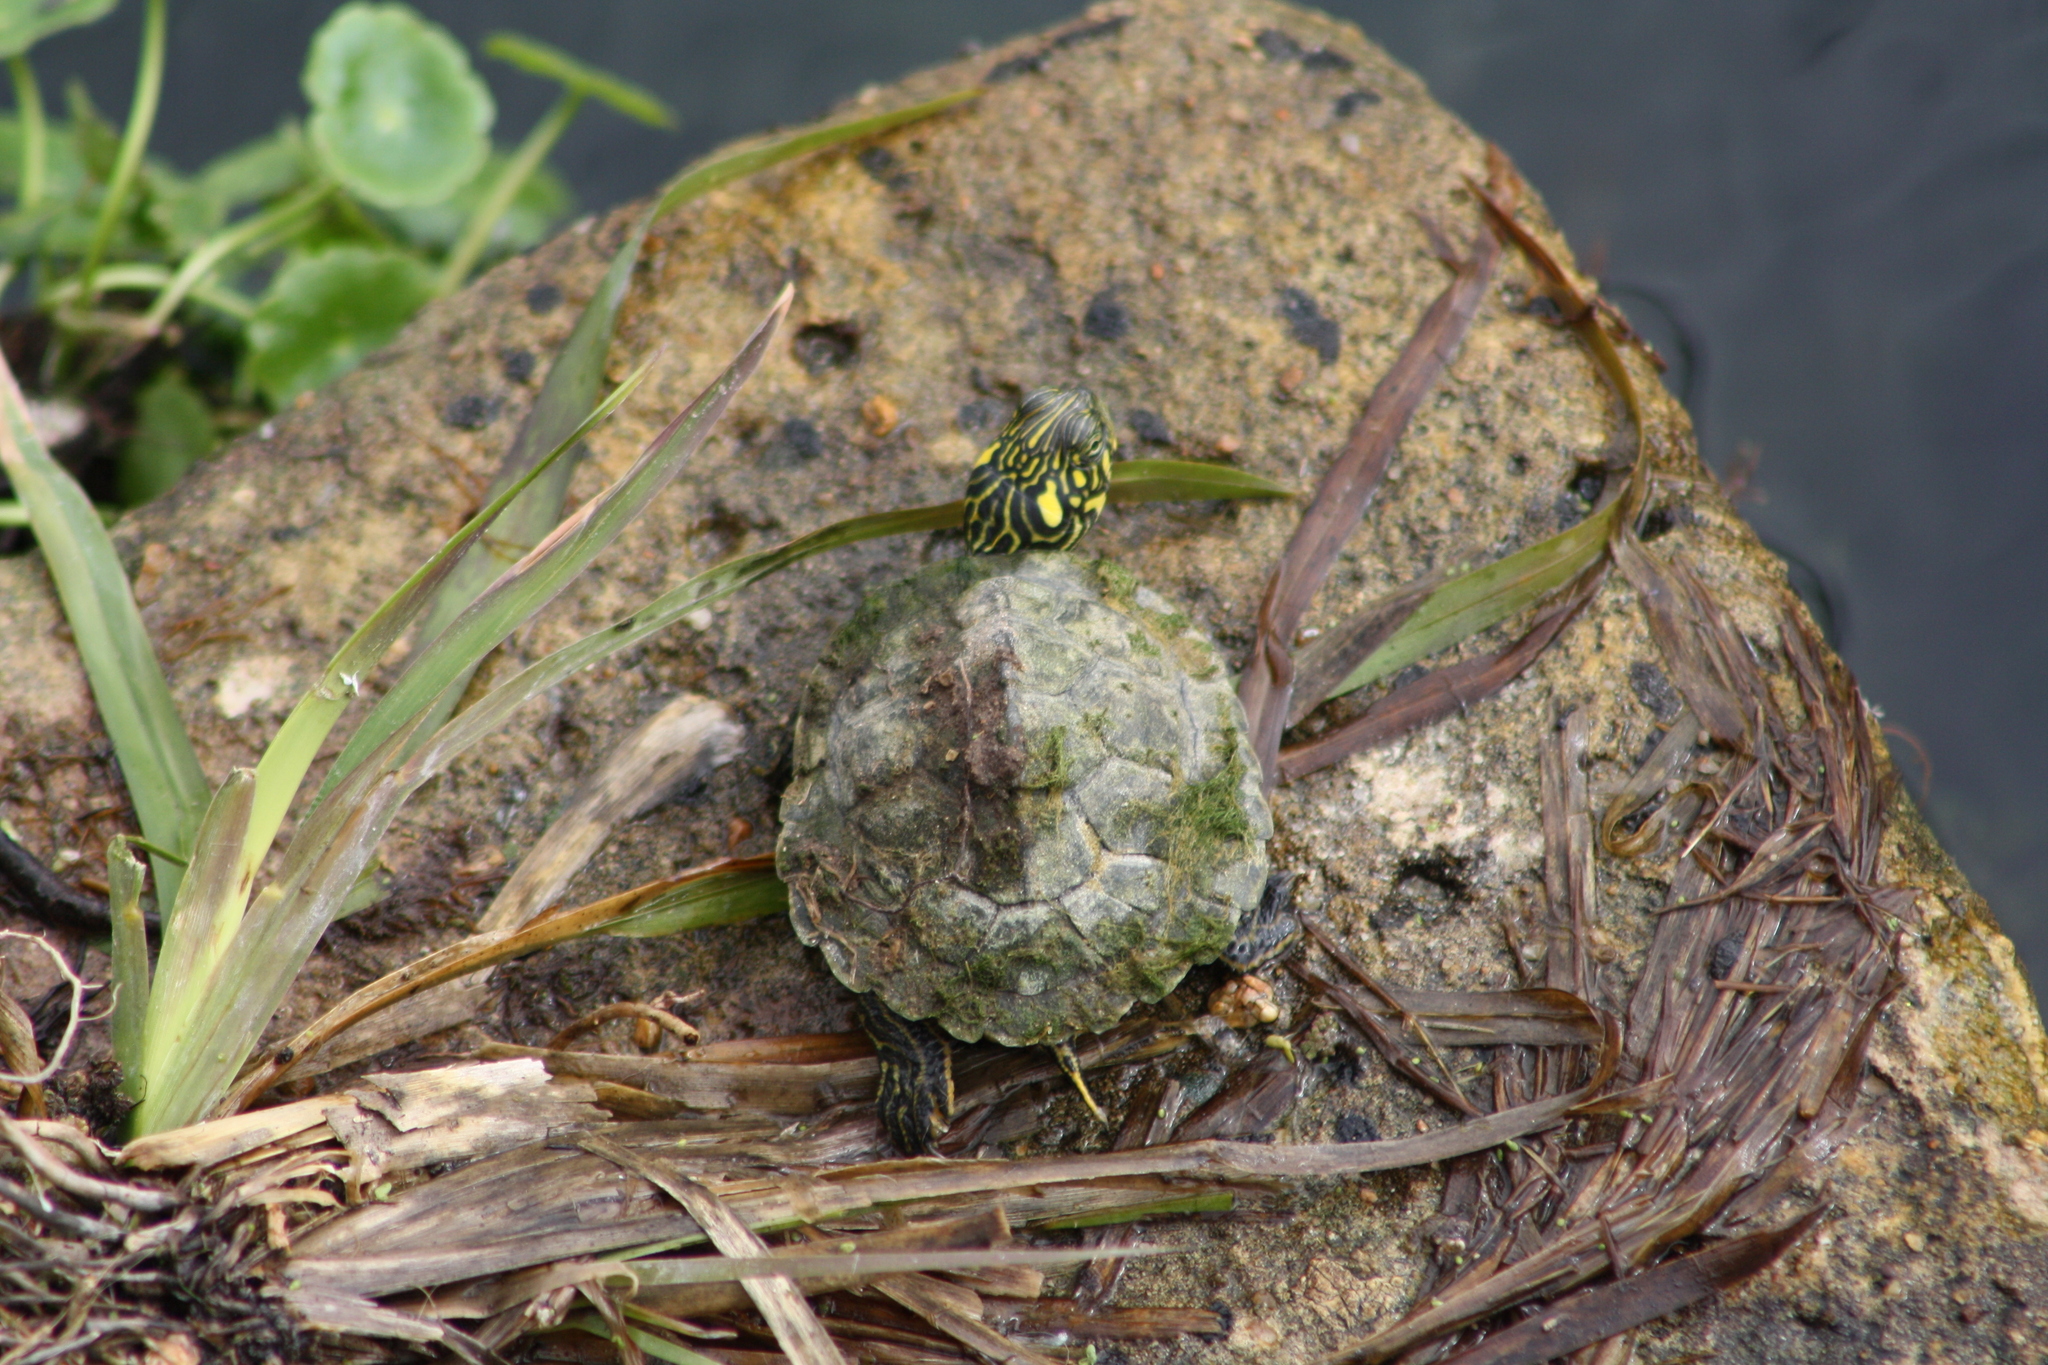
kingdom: Animalia
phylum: Chordata
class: Testudines
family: Emydidae
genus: Pseudemys
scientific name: Pseudemys texana
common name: Texas river cooter
